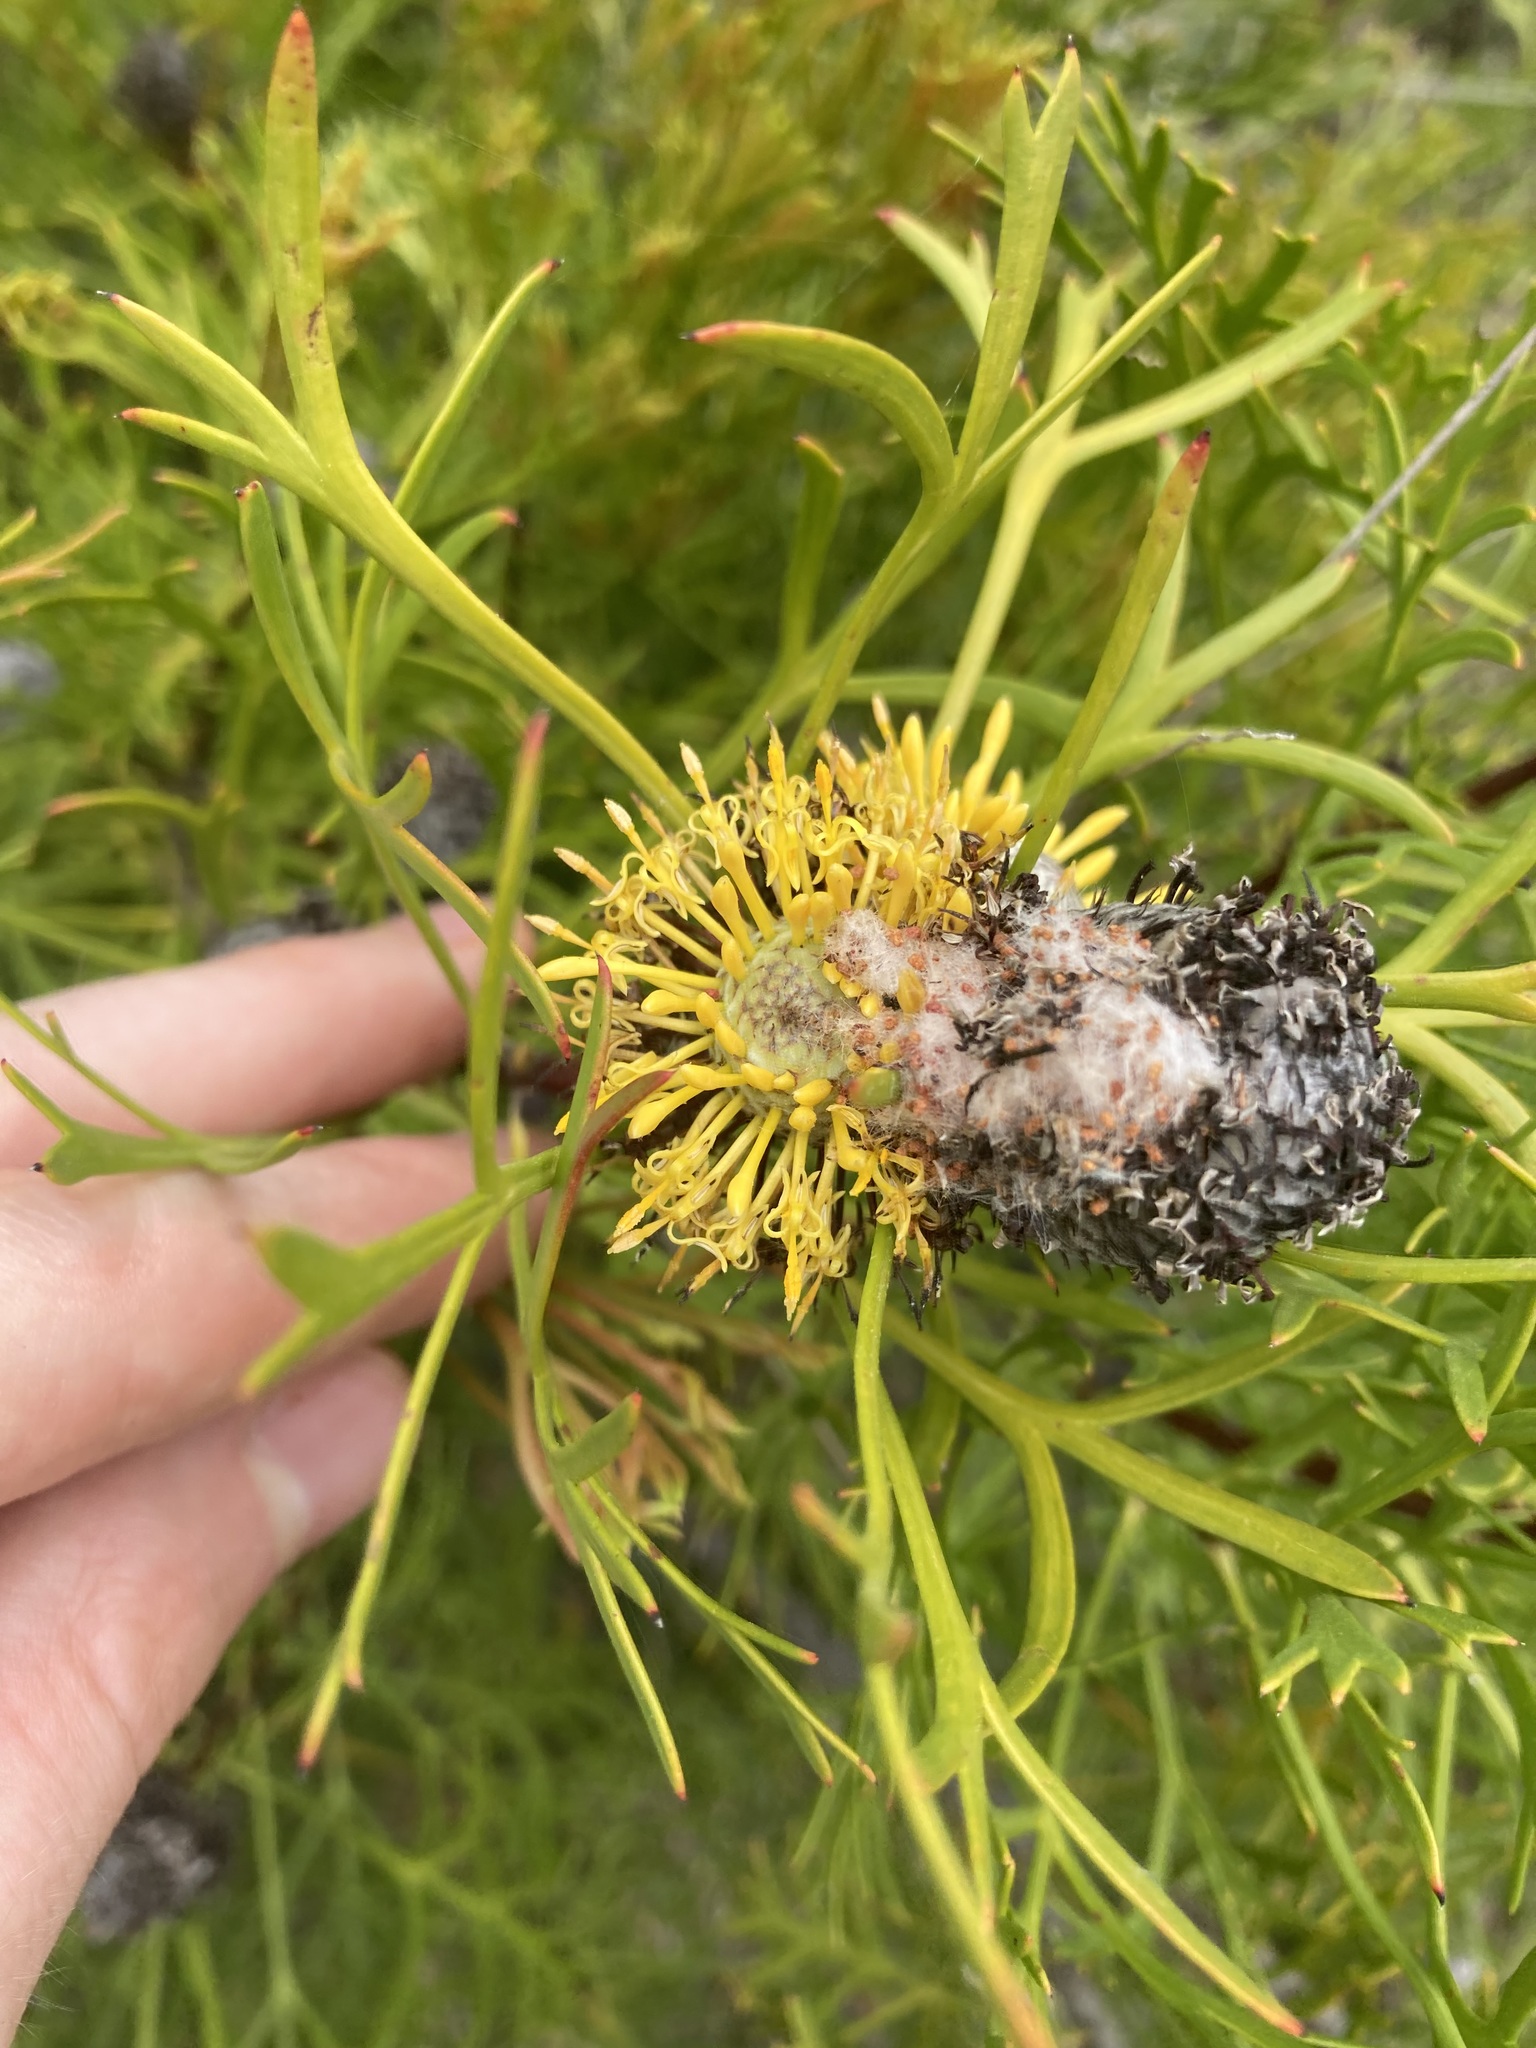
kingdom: Plantae
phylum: Tracheophyta
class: Magnoliopsida
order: Proteales
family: Proteaceae
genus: Isopogon
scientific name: Isopogon anemonifolius
